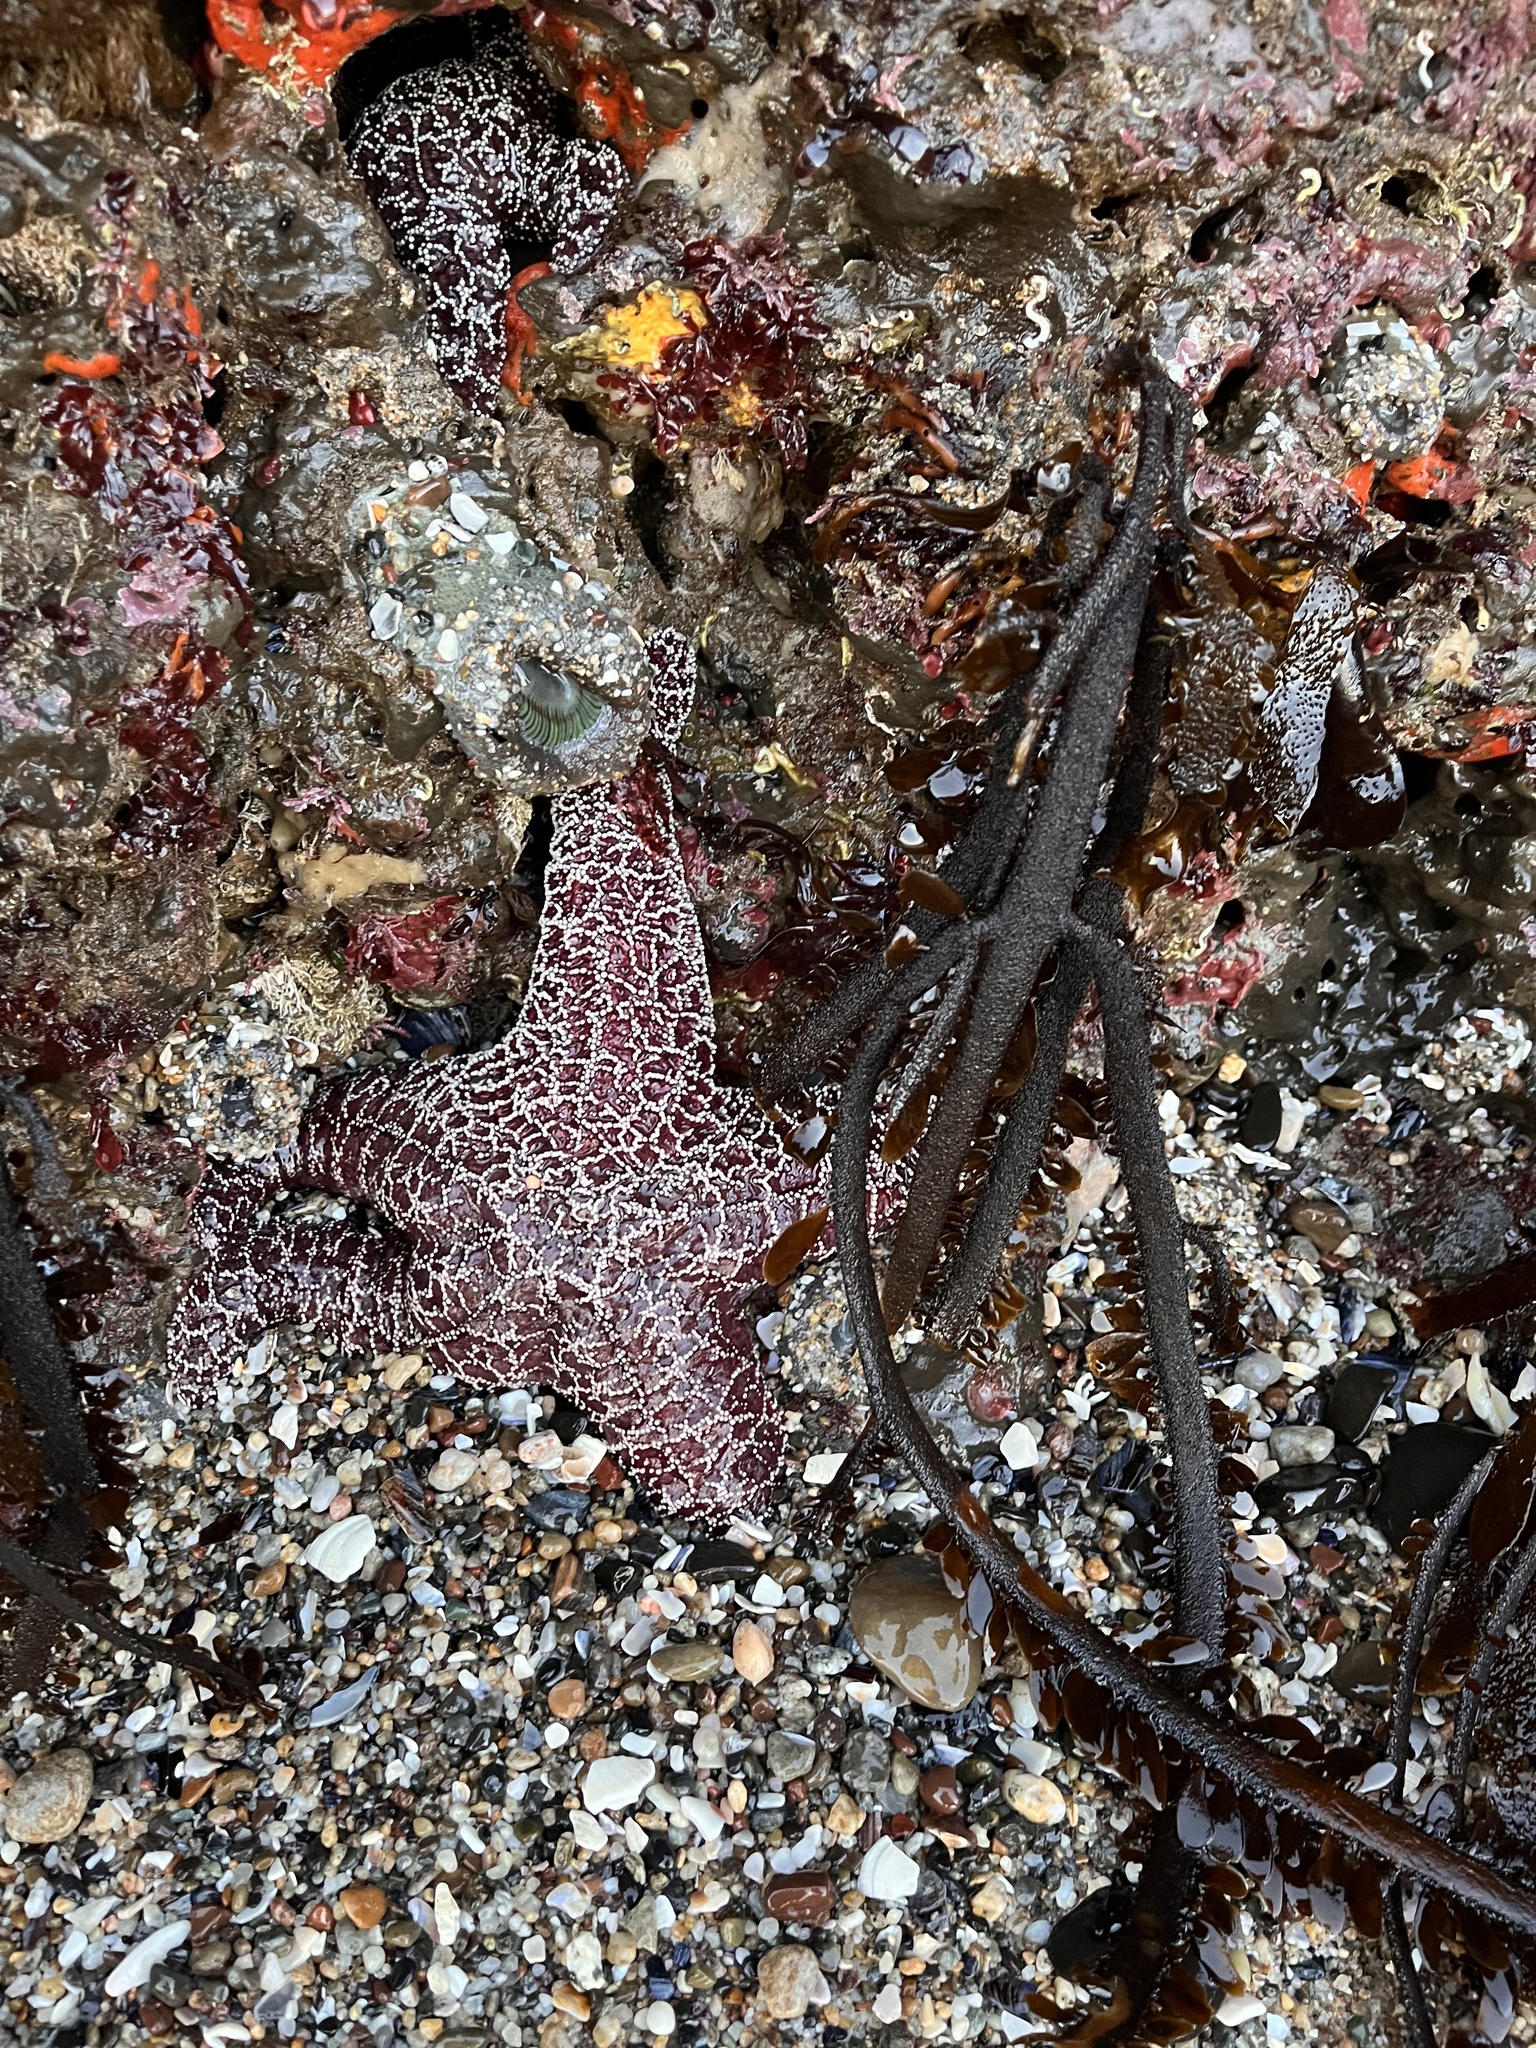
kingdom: Animalia
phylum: Echinodermata
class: Asteroidea
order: Forcipulatida
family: Asteriidae
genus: Pisaster
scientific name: Pisaster ochraceus
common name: Ochre stars
